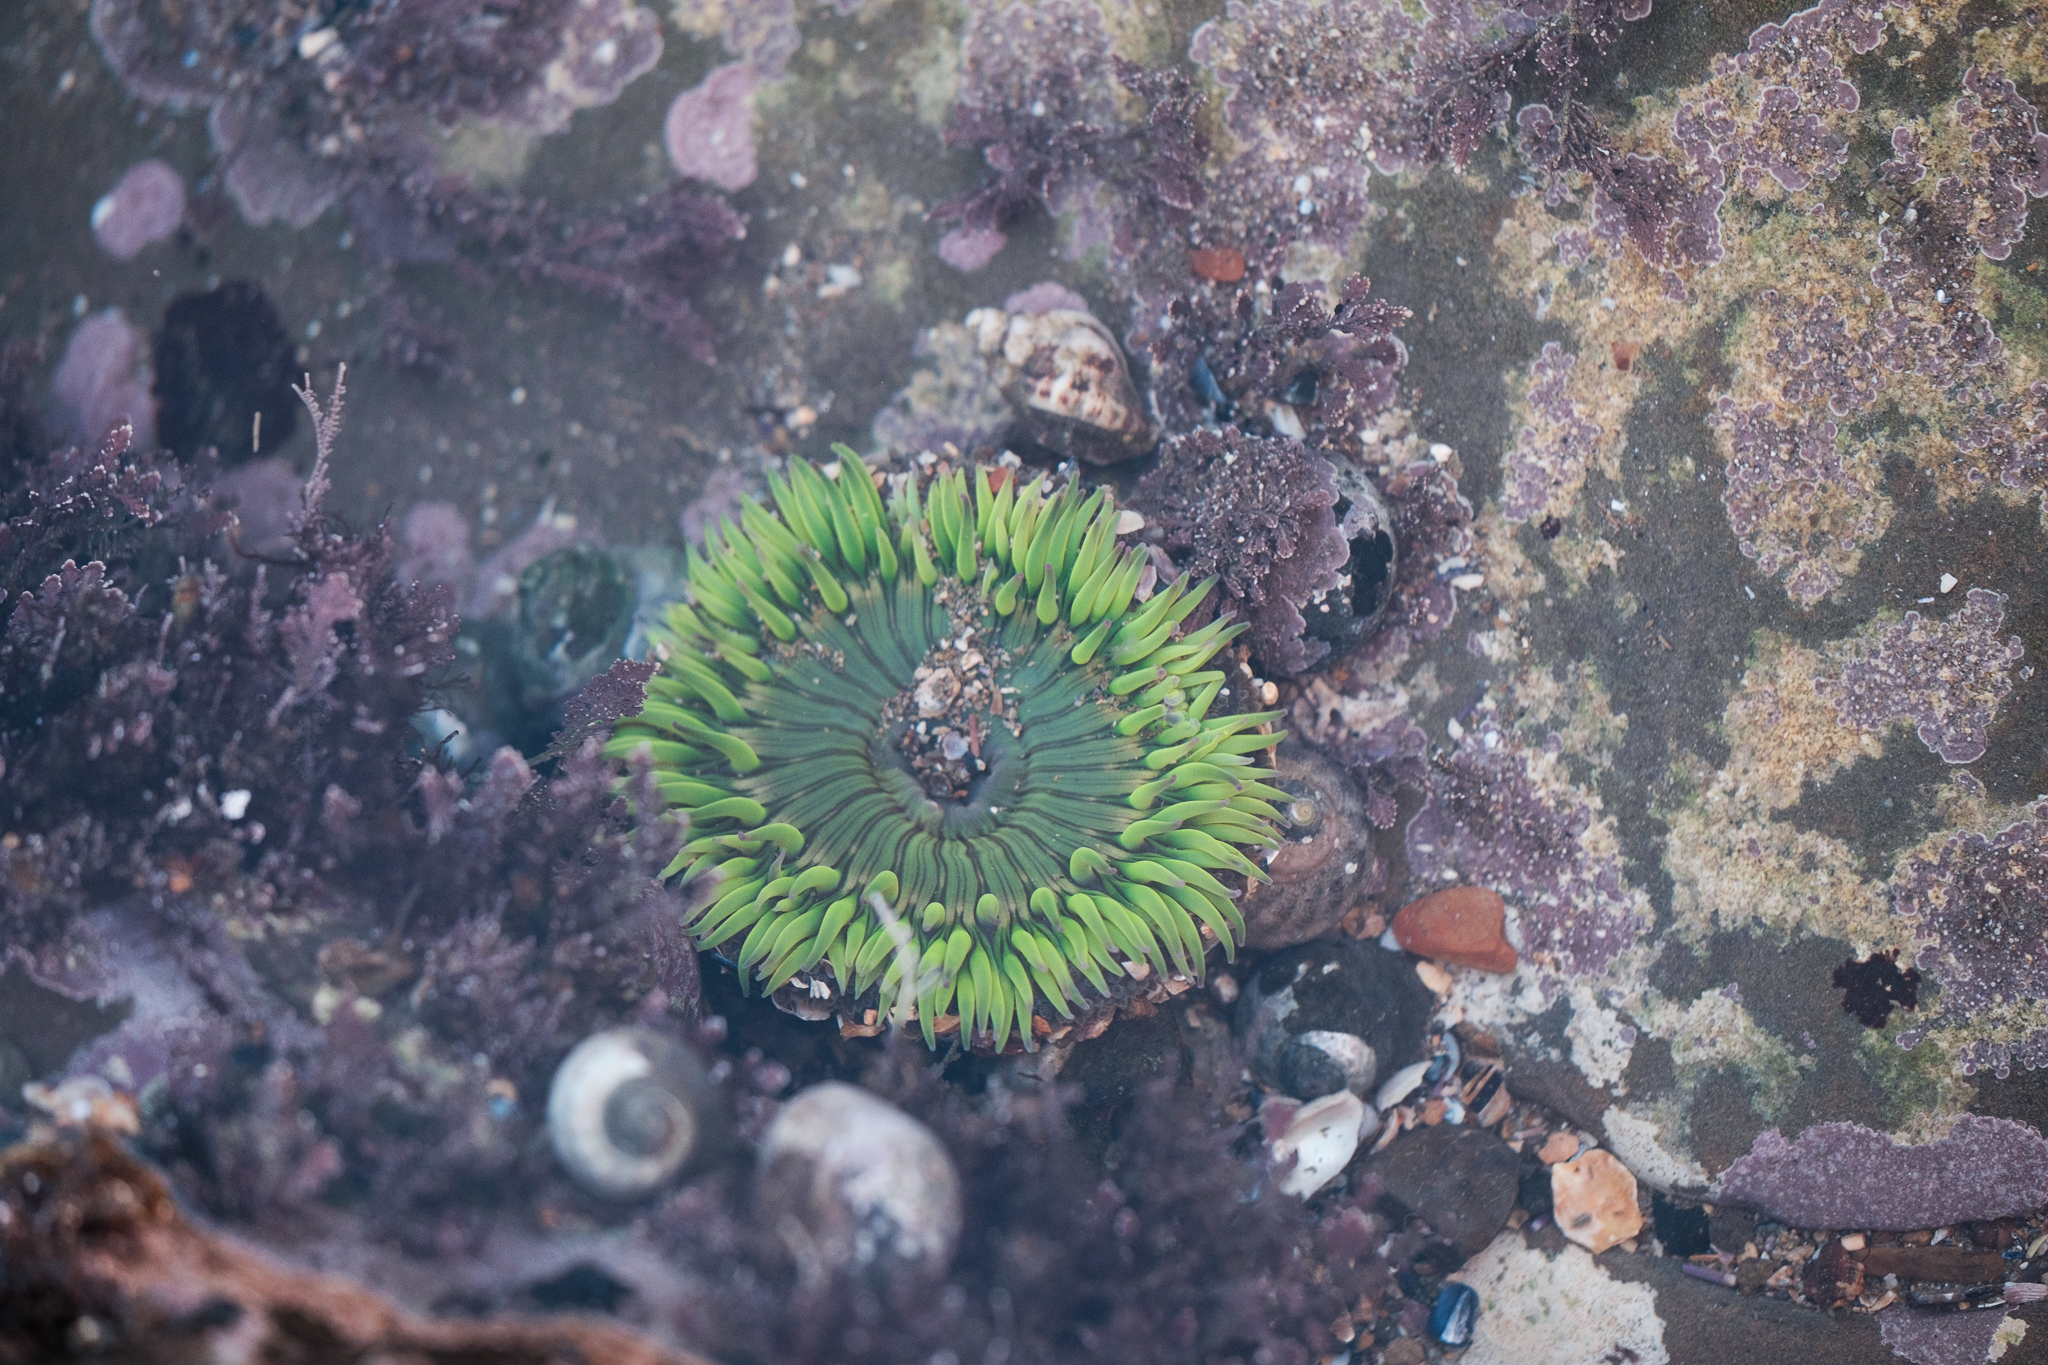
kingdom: Animalia
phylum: Cnidaria
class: Anthozoa
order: Actiniaria
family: Actiniidae
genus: Anthopleura
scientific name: Anthopleura sola
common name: Sun anemone
